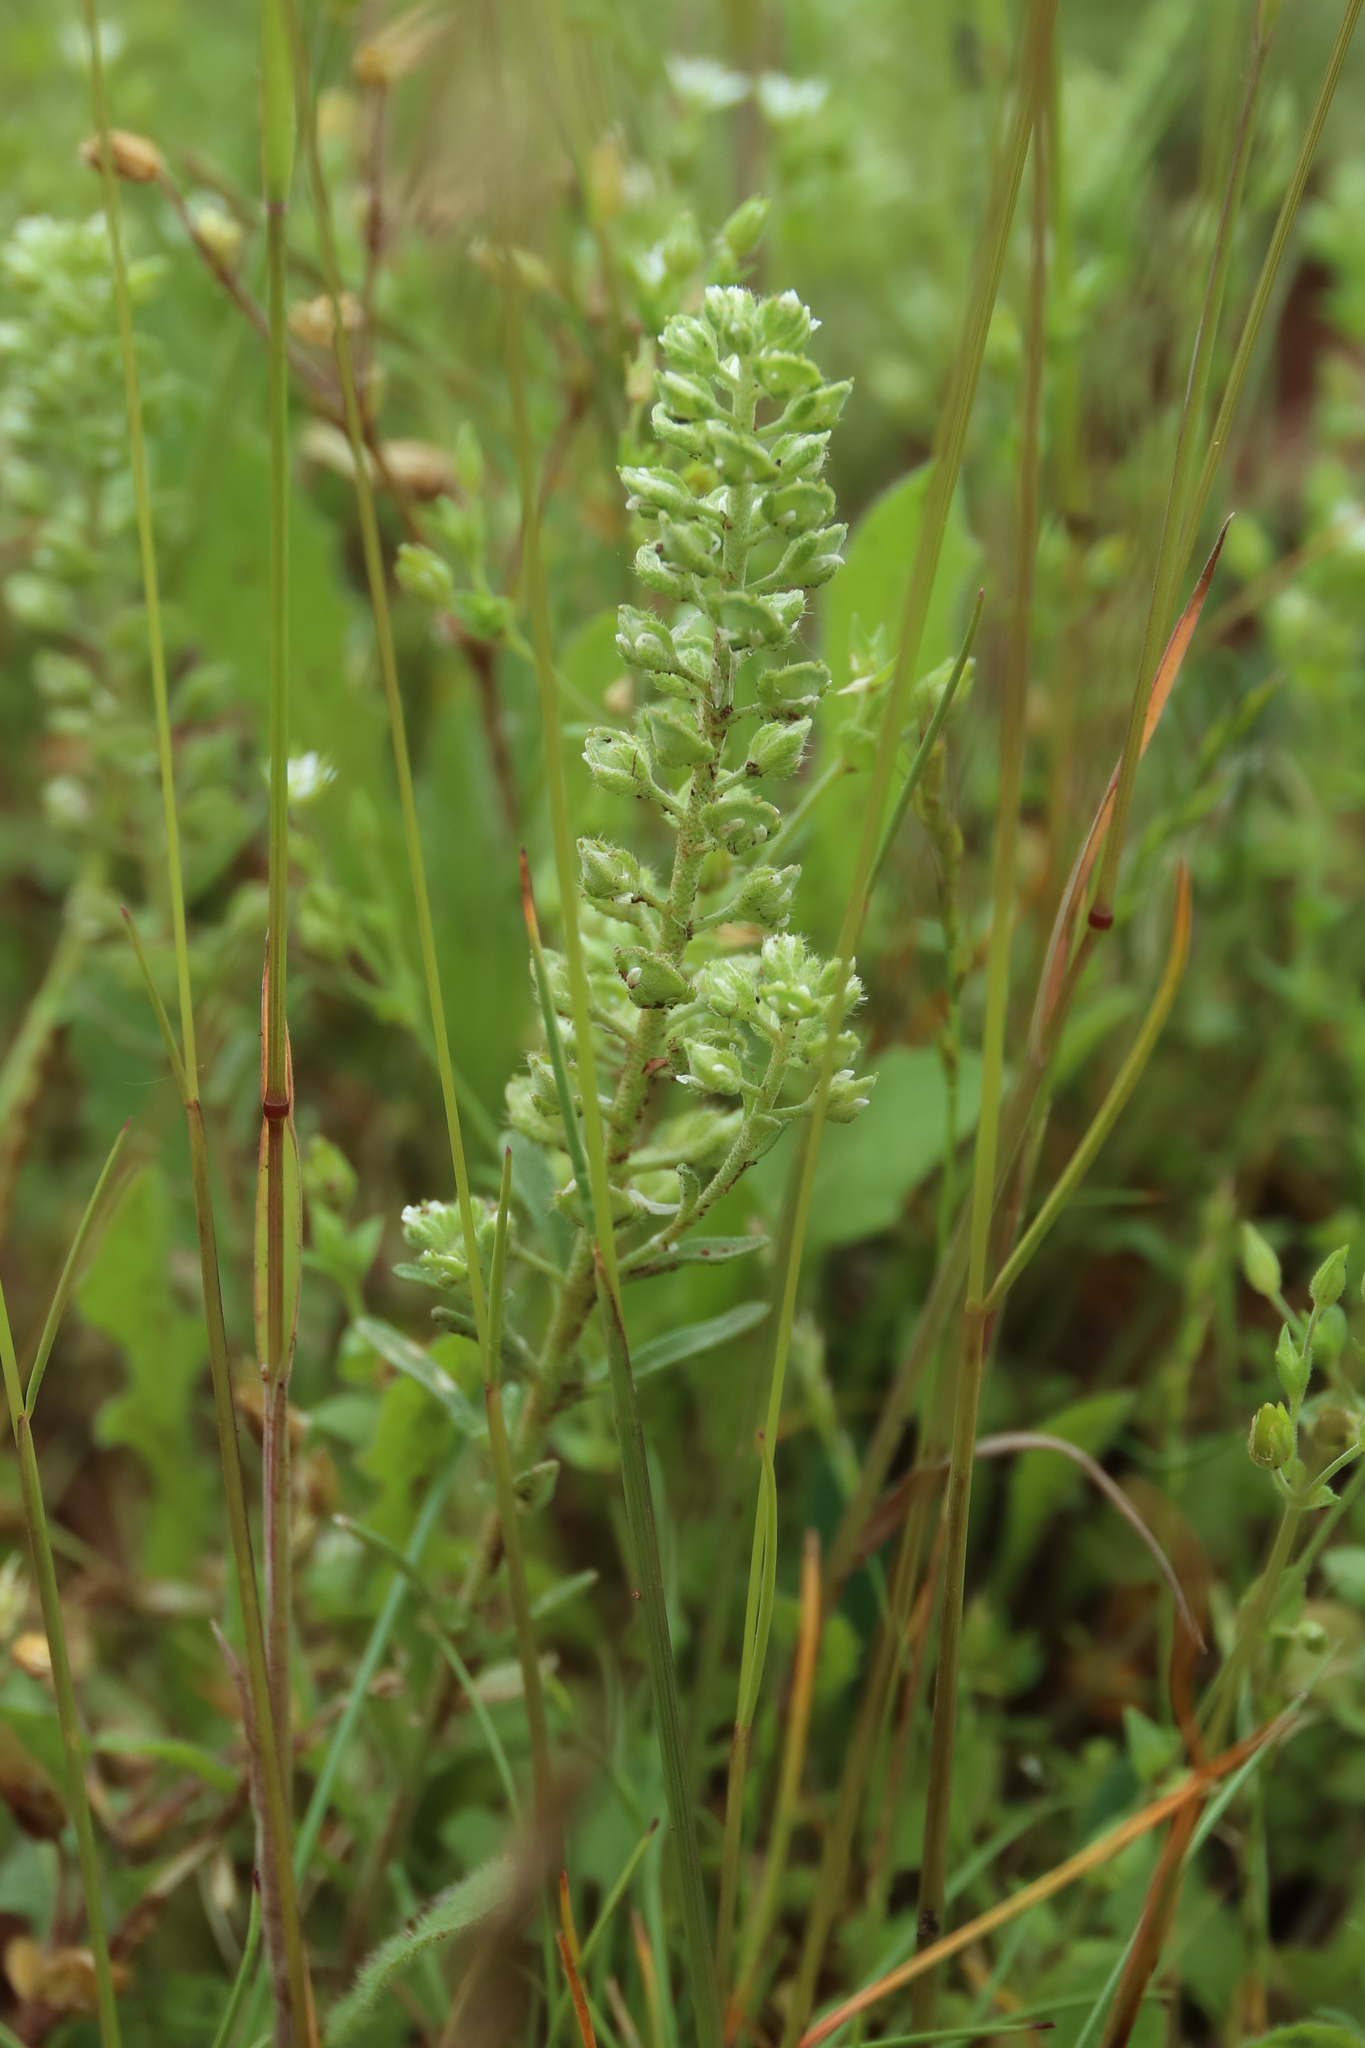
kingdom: Plantae
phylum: Tracheophyta
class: Magnoliopsida
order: Brassicales
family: Brassicaceae
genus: Alyssum
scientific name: Alyssum alyssoides
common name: Small alison
